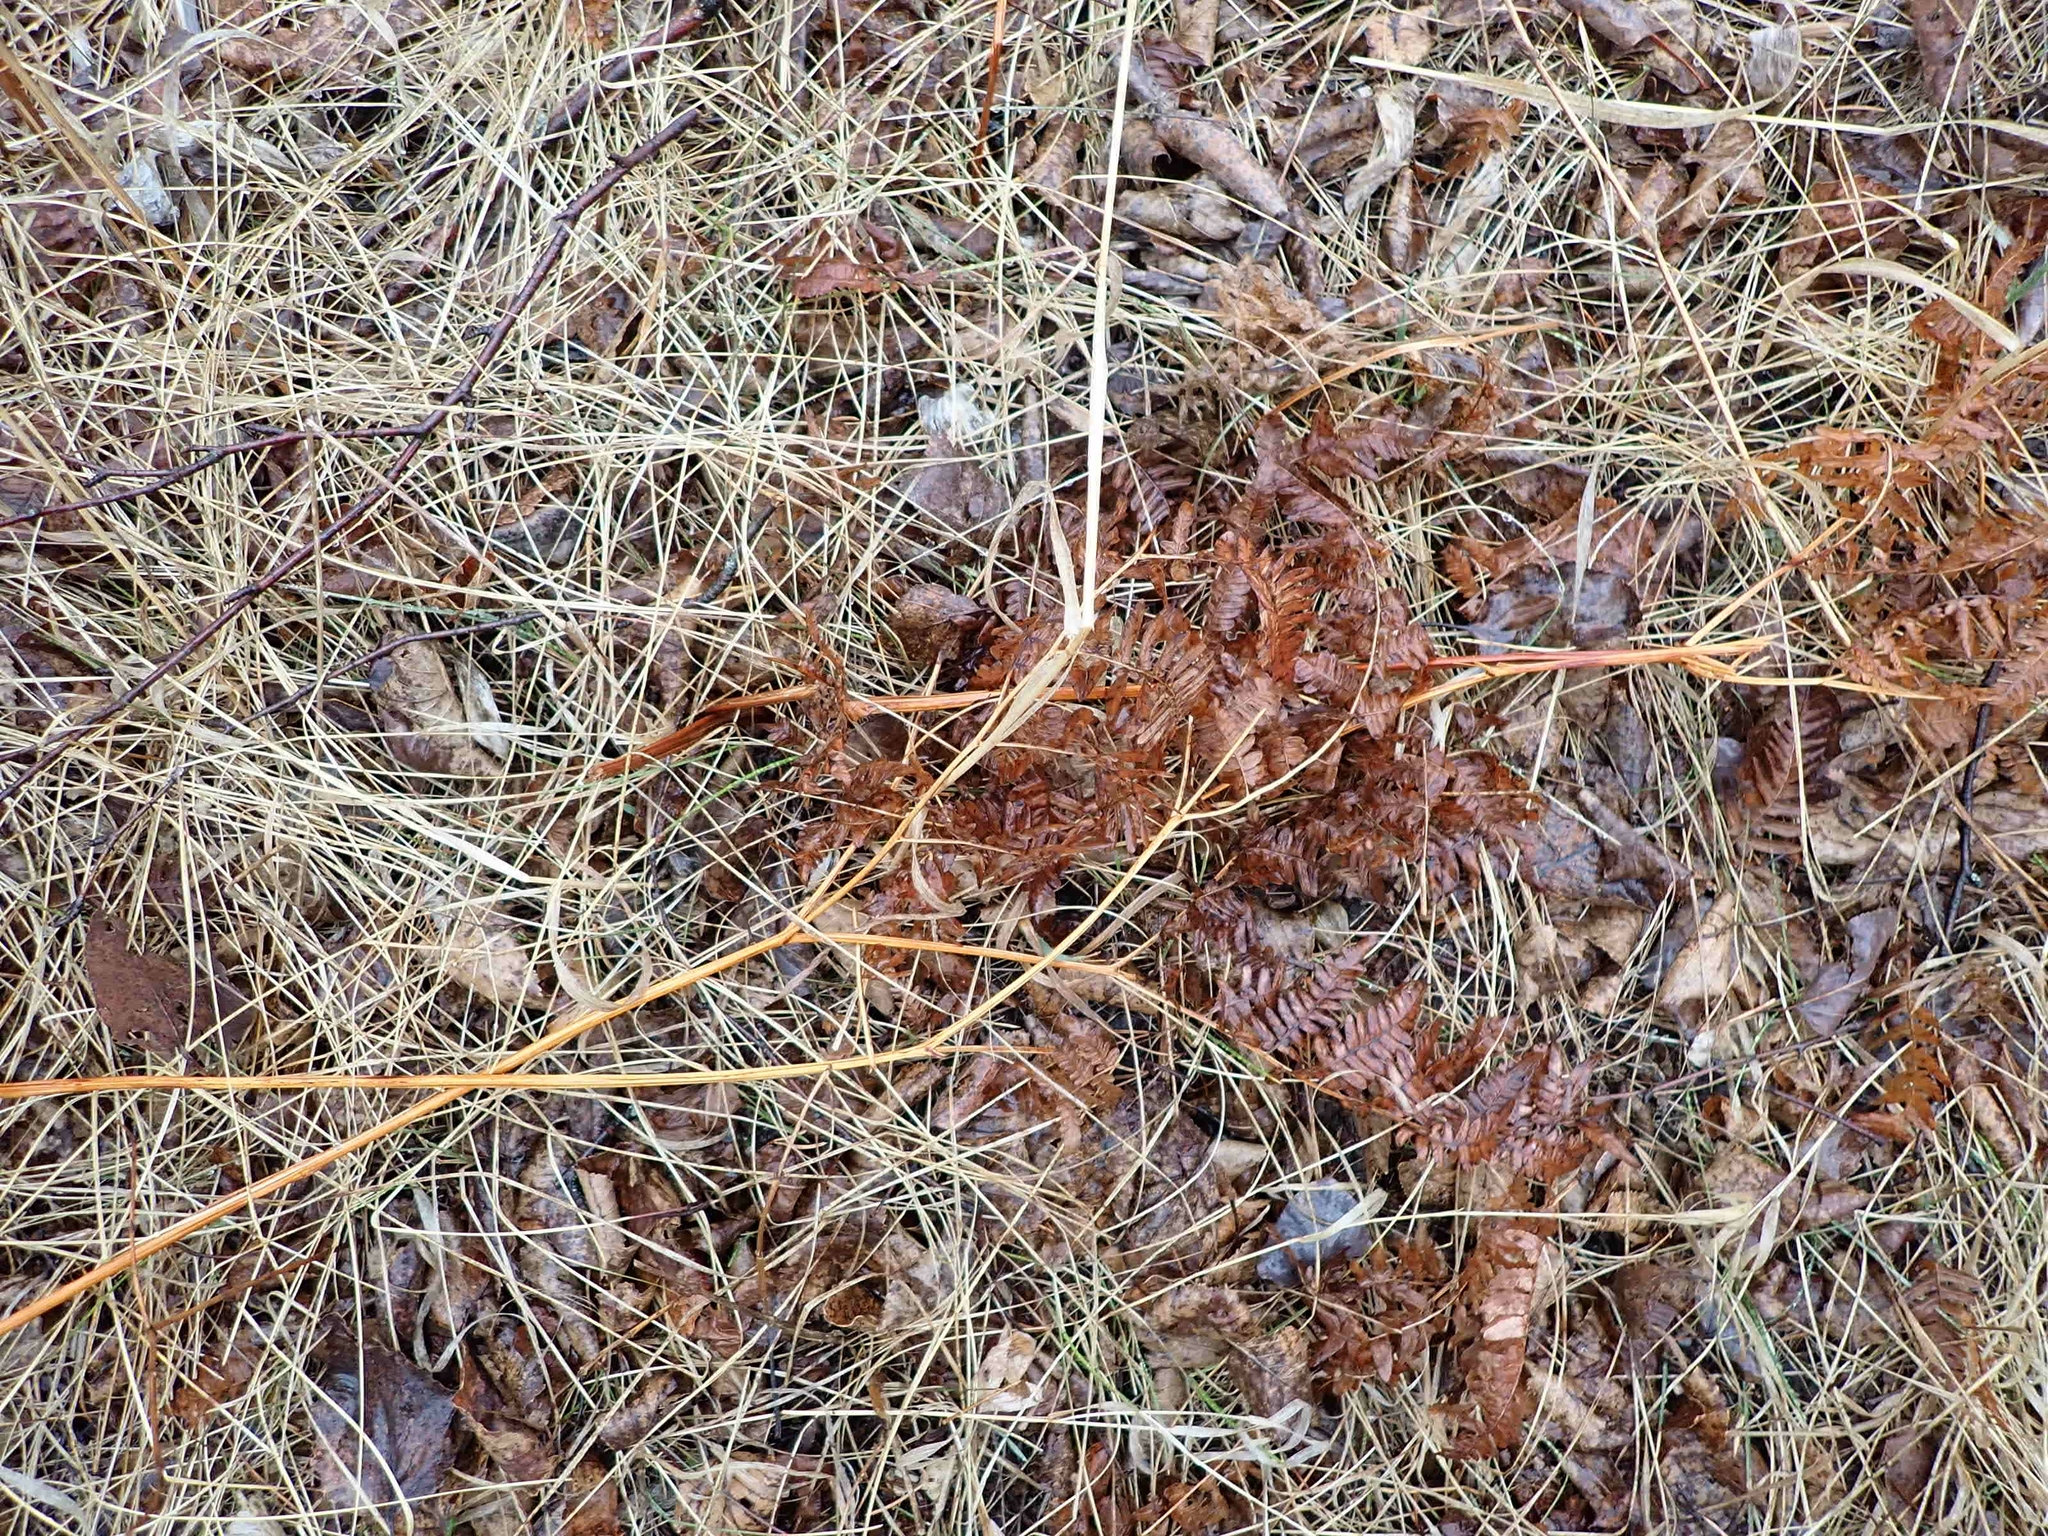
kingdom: Plantae
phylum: Tracheophyta
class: Polypodiopsida
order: Polypodiales
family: Dennstaedtiaceae
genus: Pteridium
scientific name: Pteridium aquilinum
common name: Bracken
